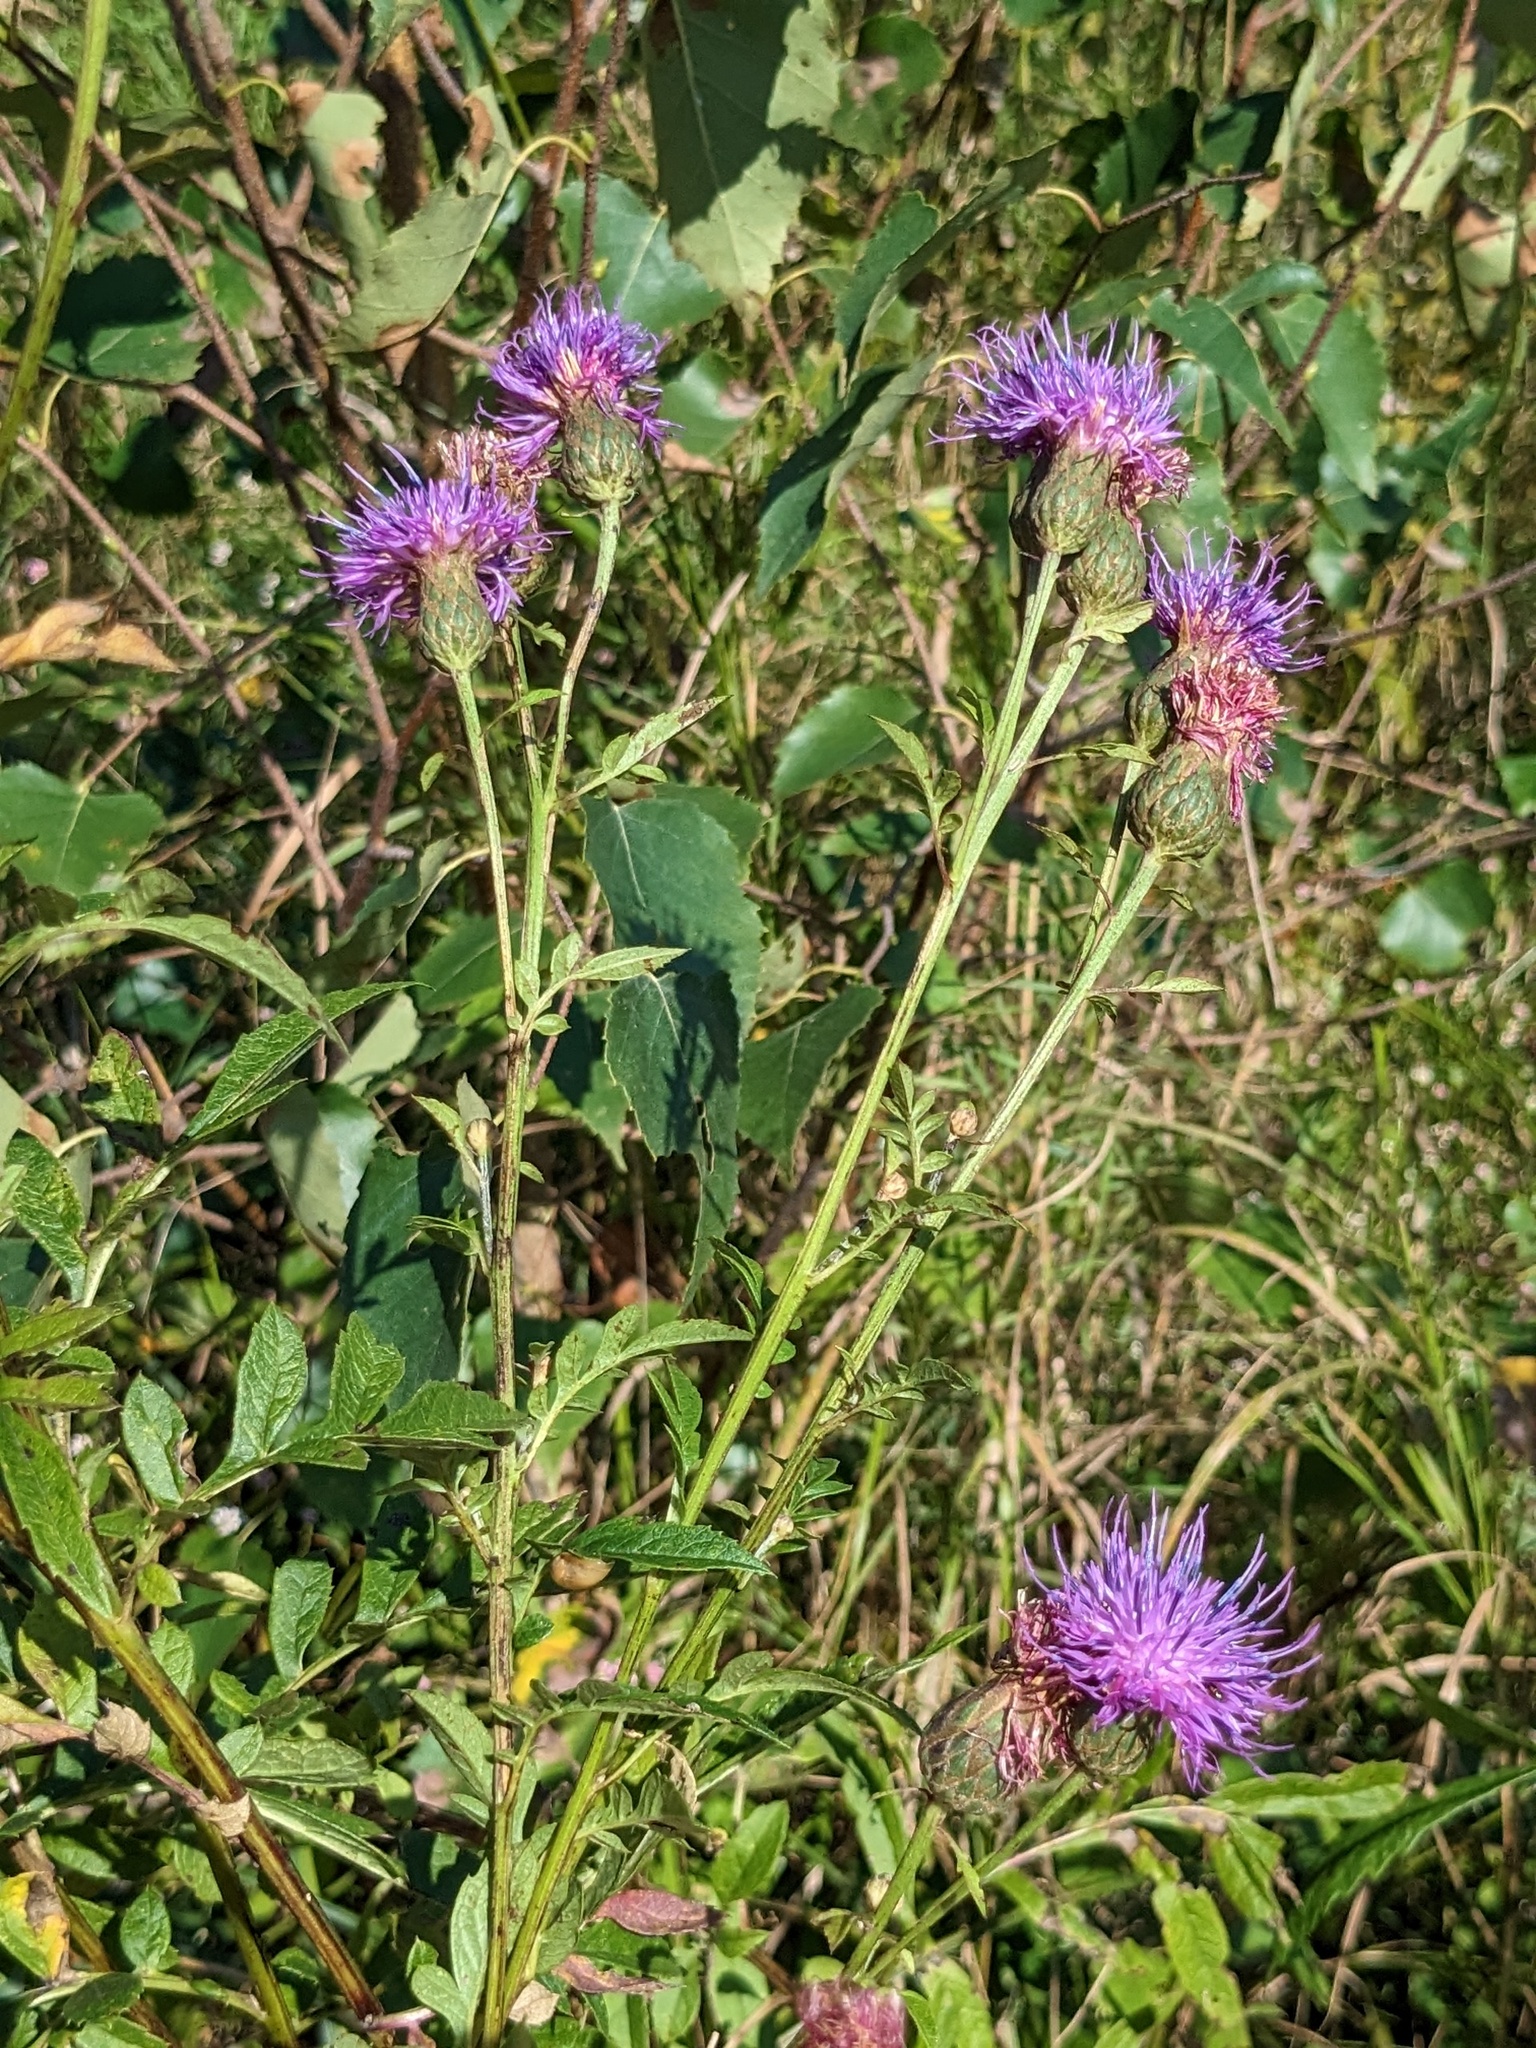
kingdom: Plantae
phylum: Tracheophyta
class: Magnoliopsida
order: Asterales
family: Asteraceae
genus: Serratula
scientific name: Serratula coronata
